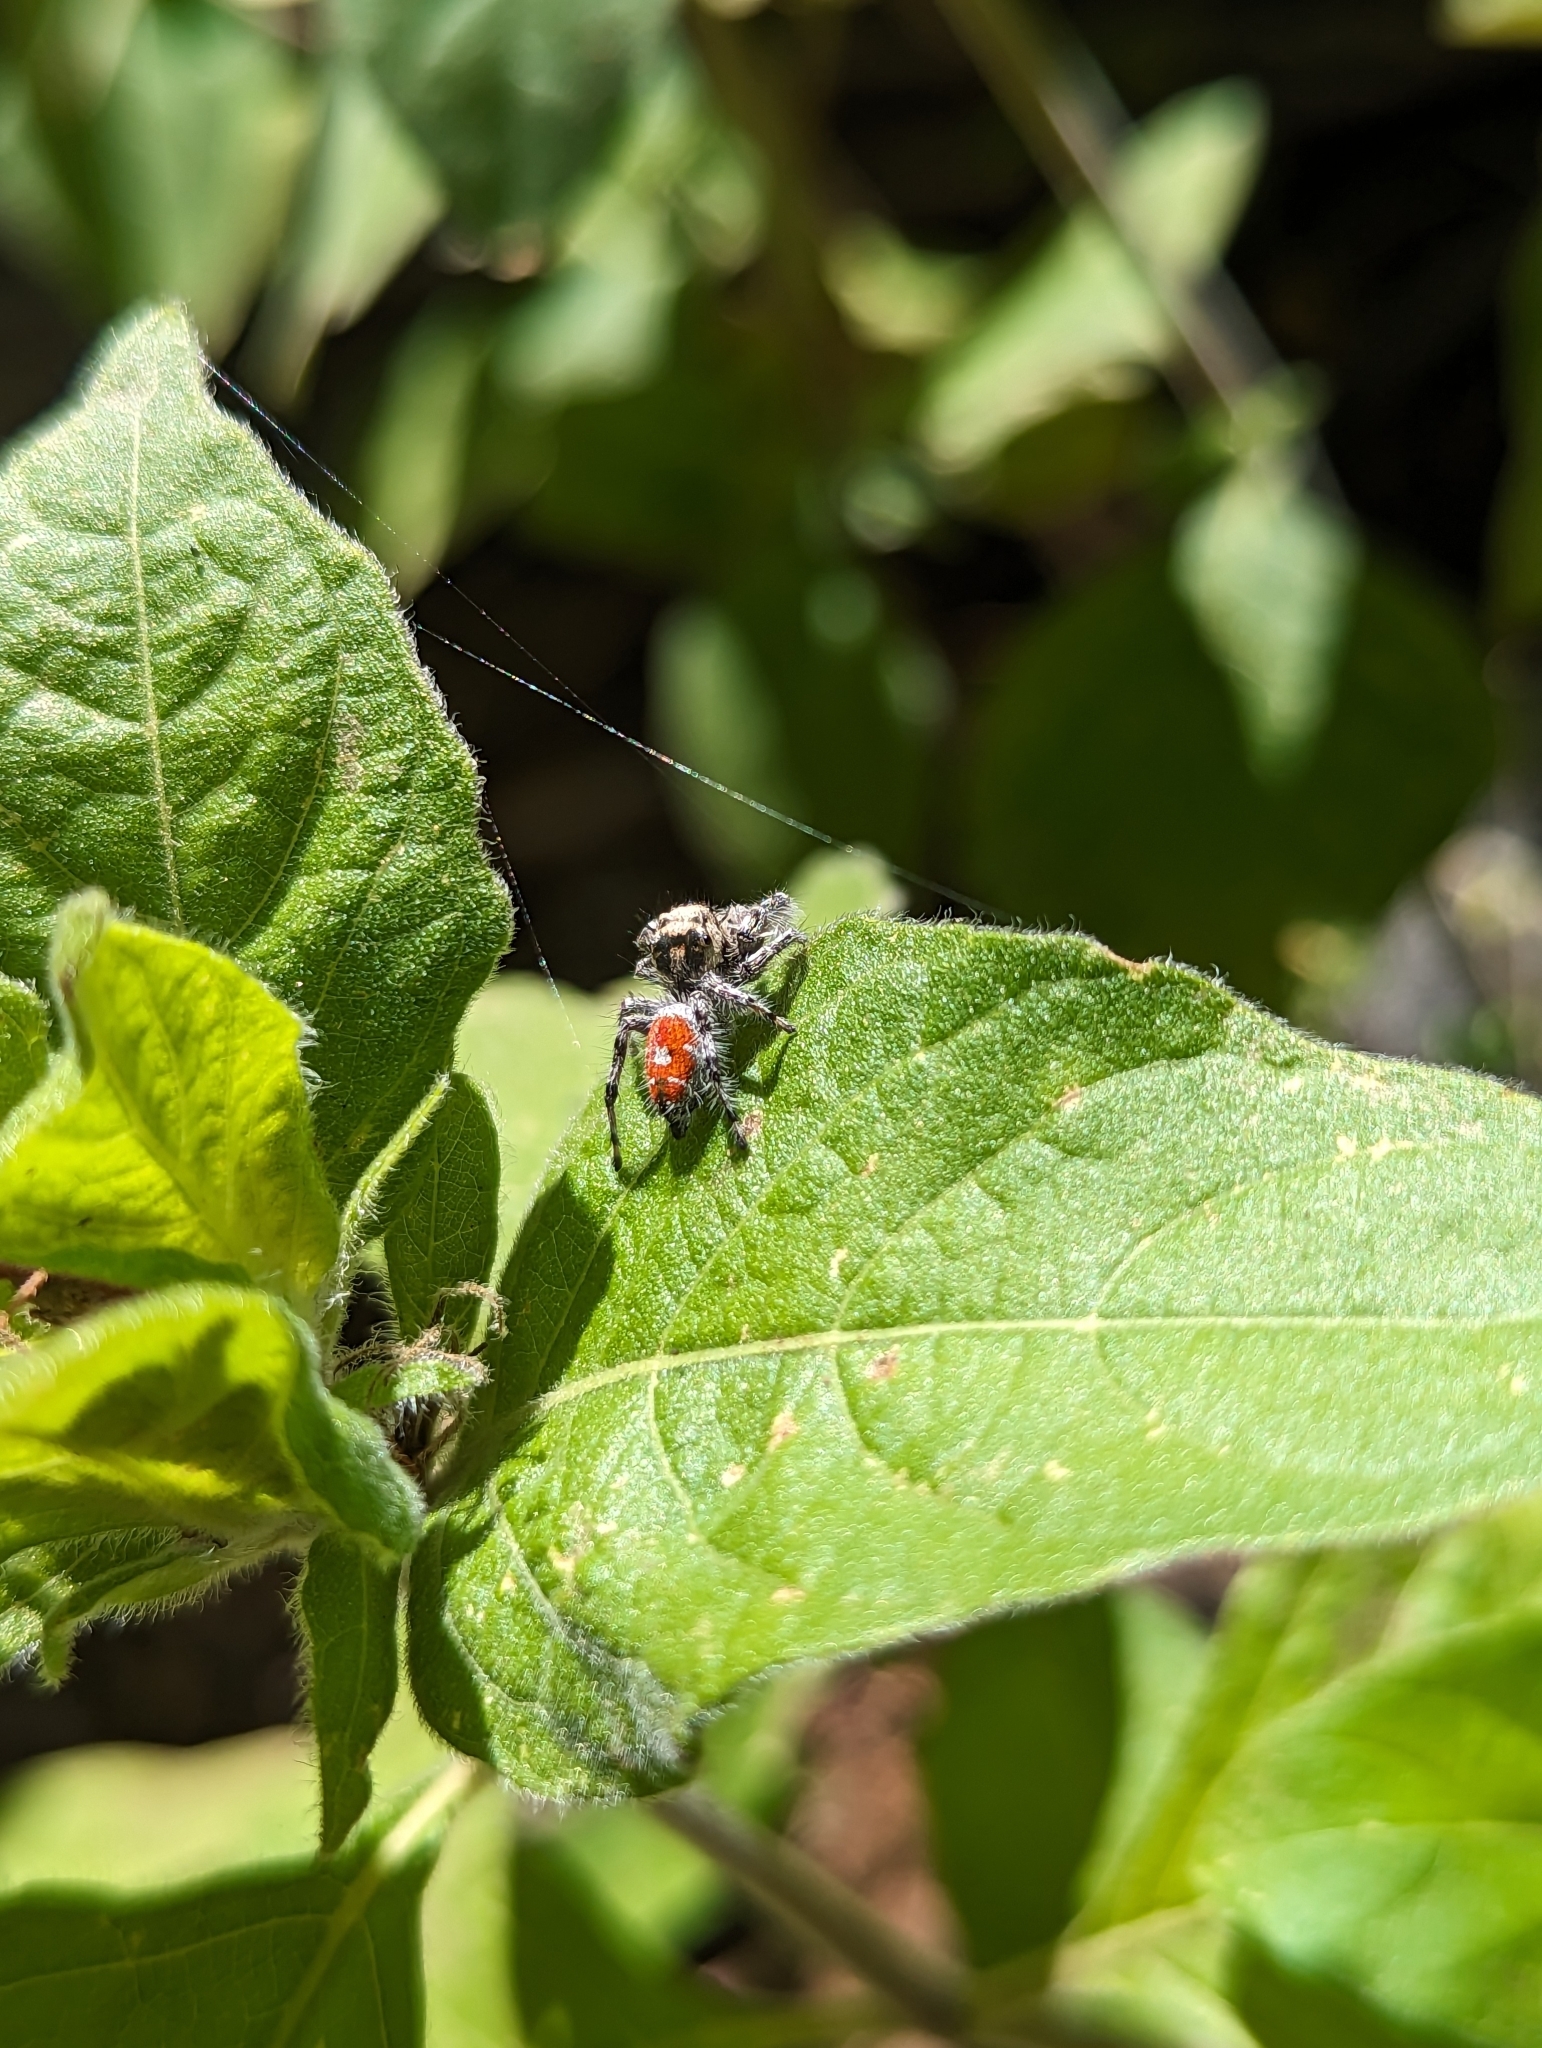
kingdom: Animalia
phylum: Arthropoda
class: Arachnida
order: Araneae
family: Salticidae
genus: Phidippus
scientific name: Phidippus phoenix
